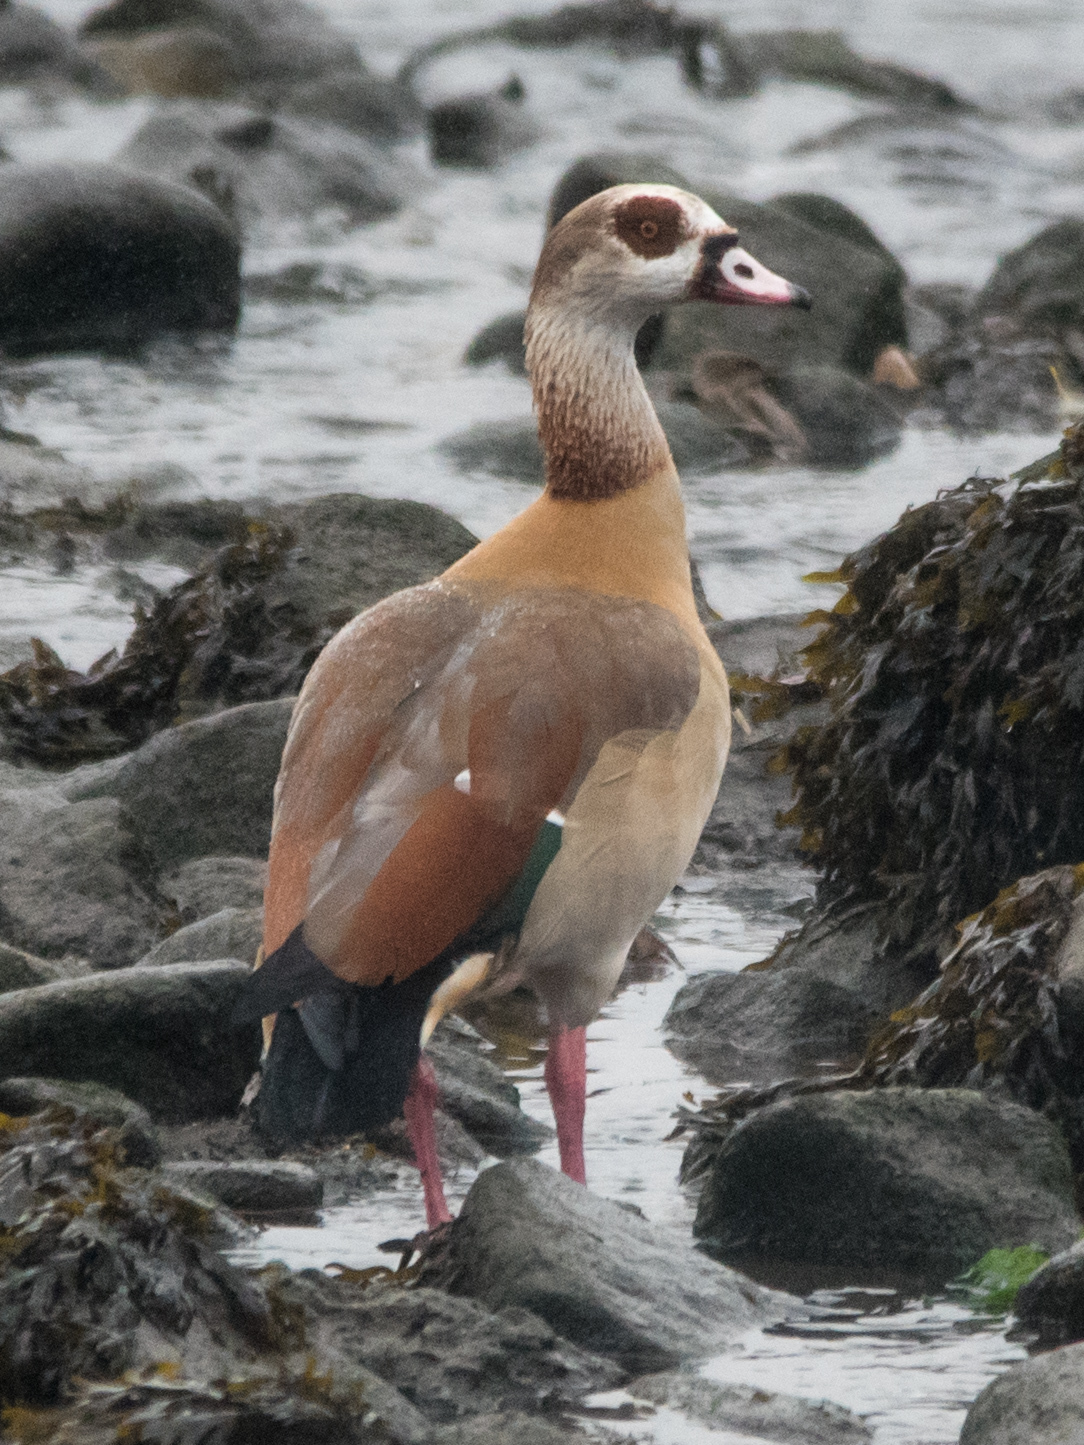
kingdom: Animalia
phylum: Chordata
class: Aves
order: Anseriformes
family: Anatidae
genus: Alopochen
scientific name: Alopochen aegyptiaca
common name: Egyptian goose
